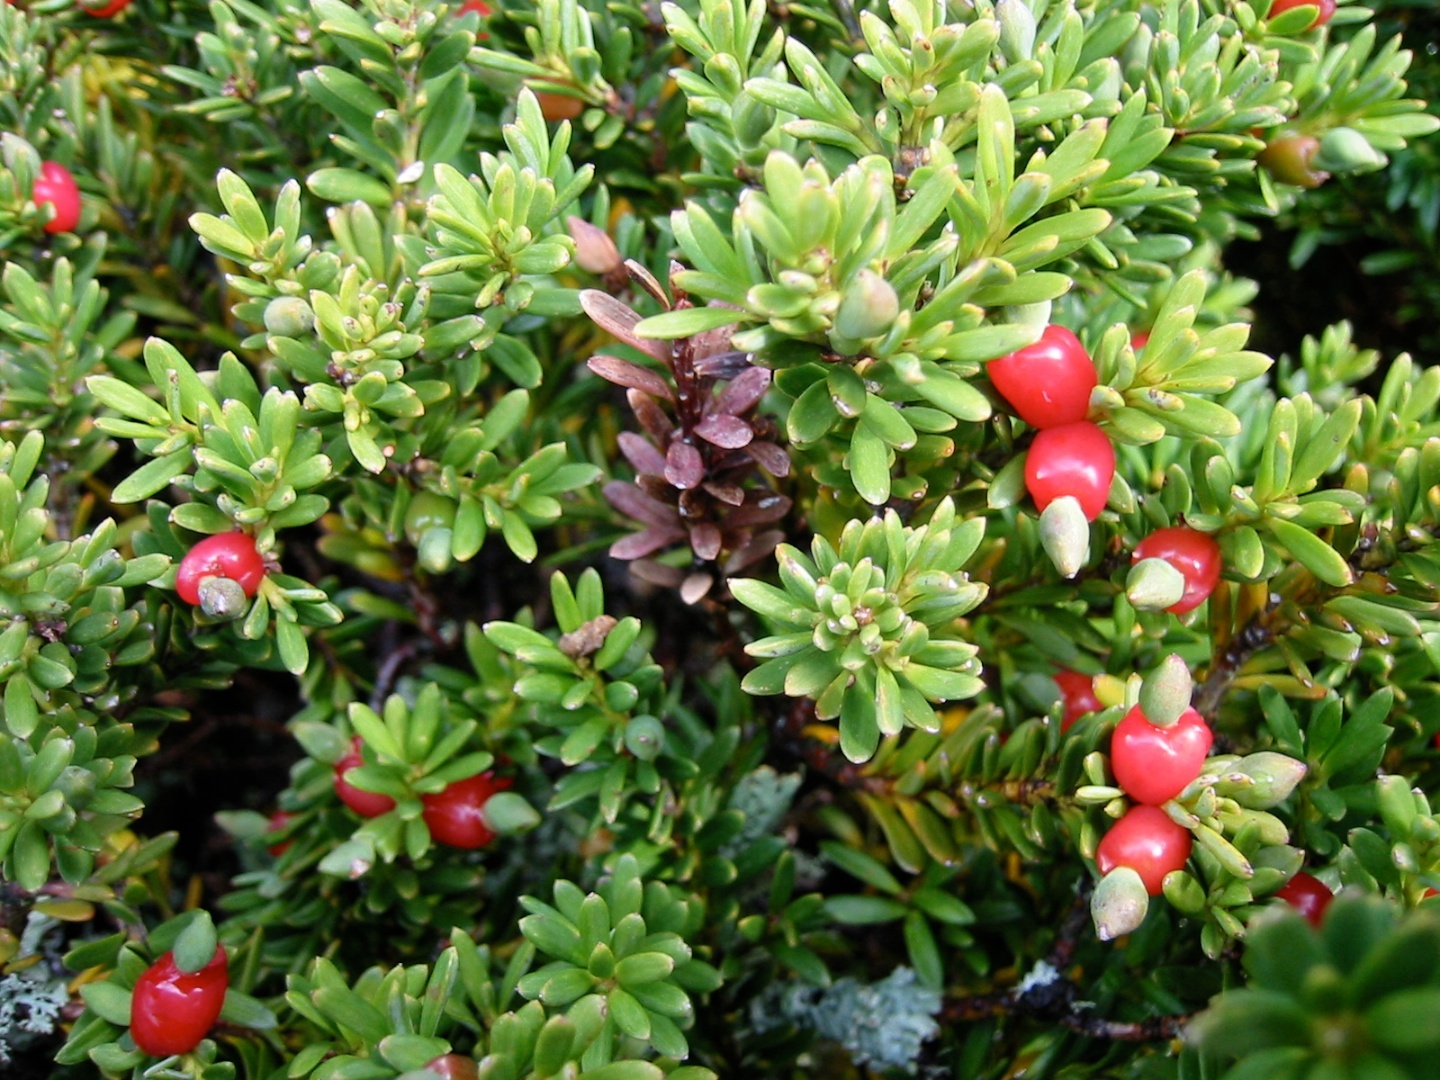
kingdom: Plantae
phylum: Tracheophyta
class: Pinopsida
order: Pinales
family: Podocarpaceae
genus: Podocarpus
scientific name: Podocarpus nivalis
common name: Alpine totara
